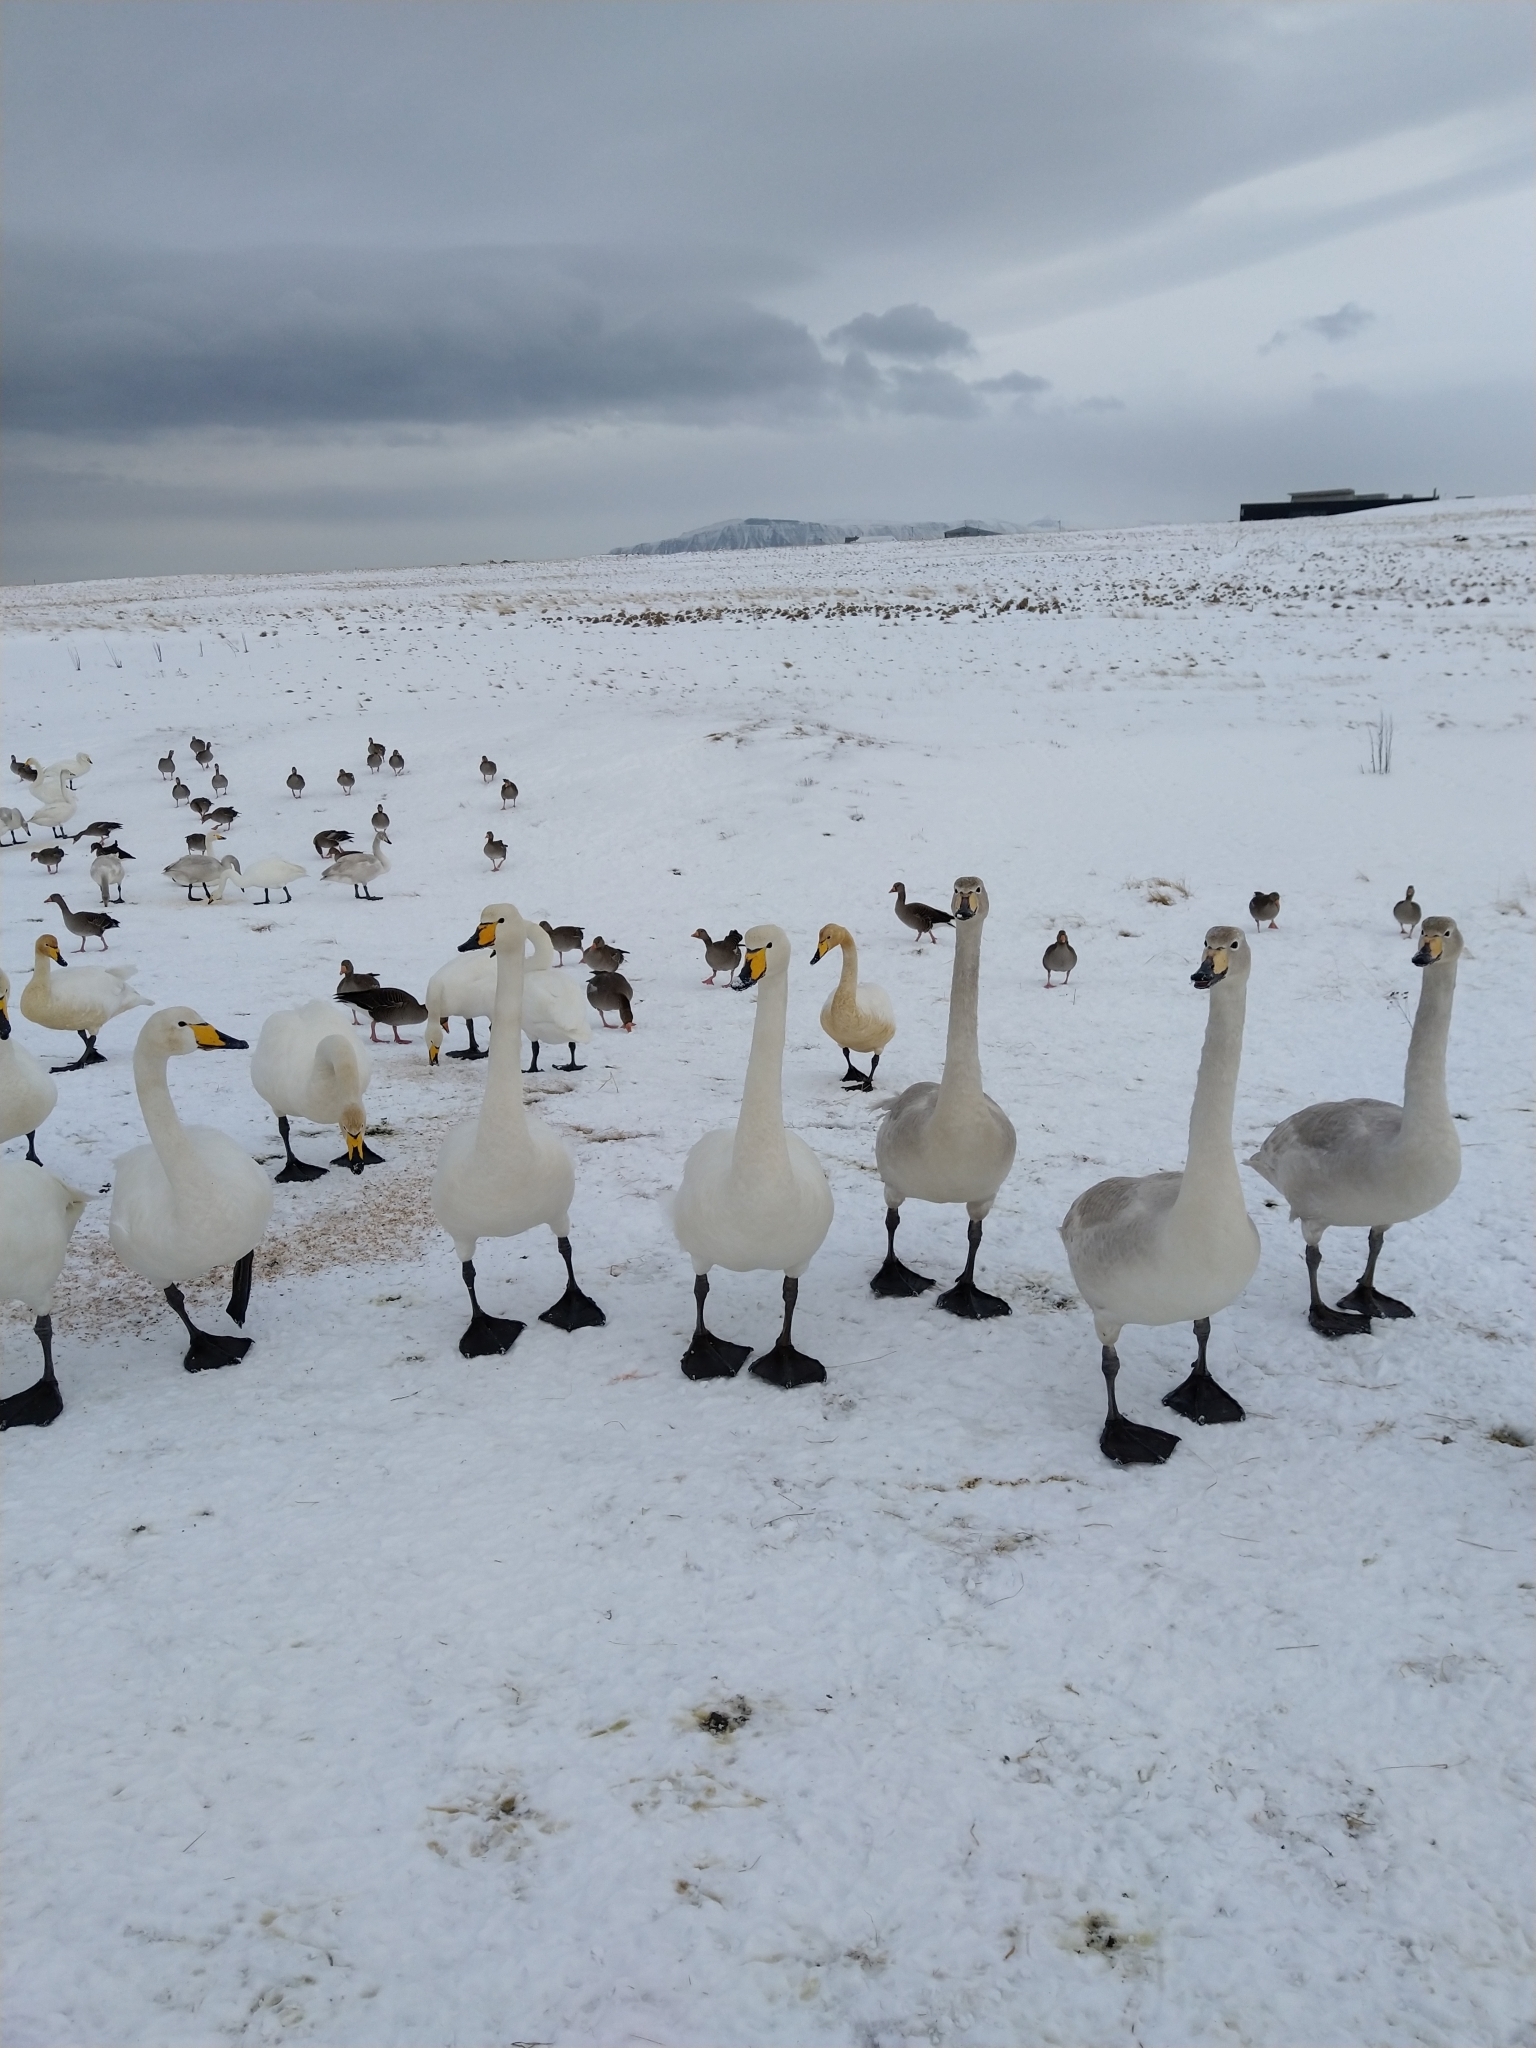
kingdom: Animalia
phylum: Chordata
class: Aves
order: Anseriformes
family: Anatidae
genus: Cygnus
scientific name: Cygnus cygnus
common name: Whooper swan
